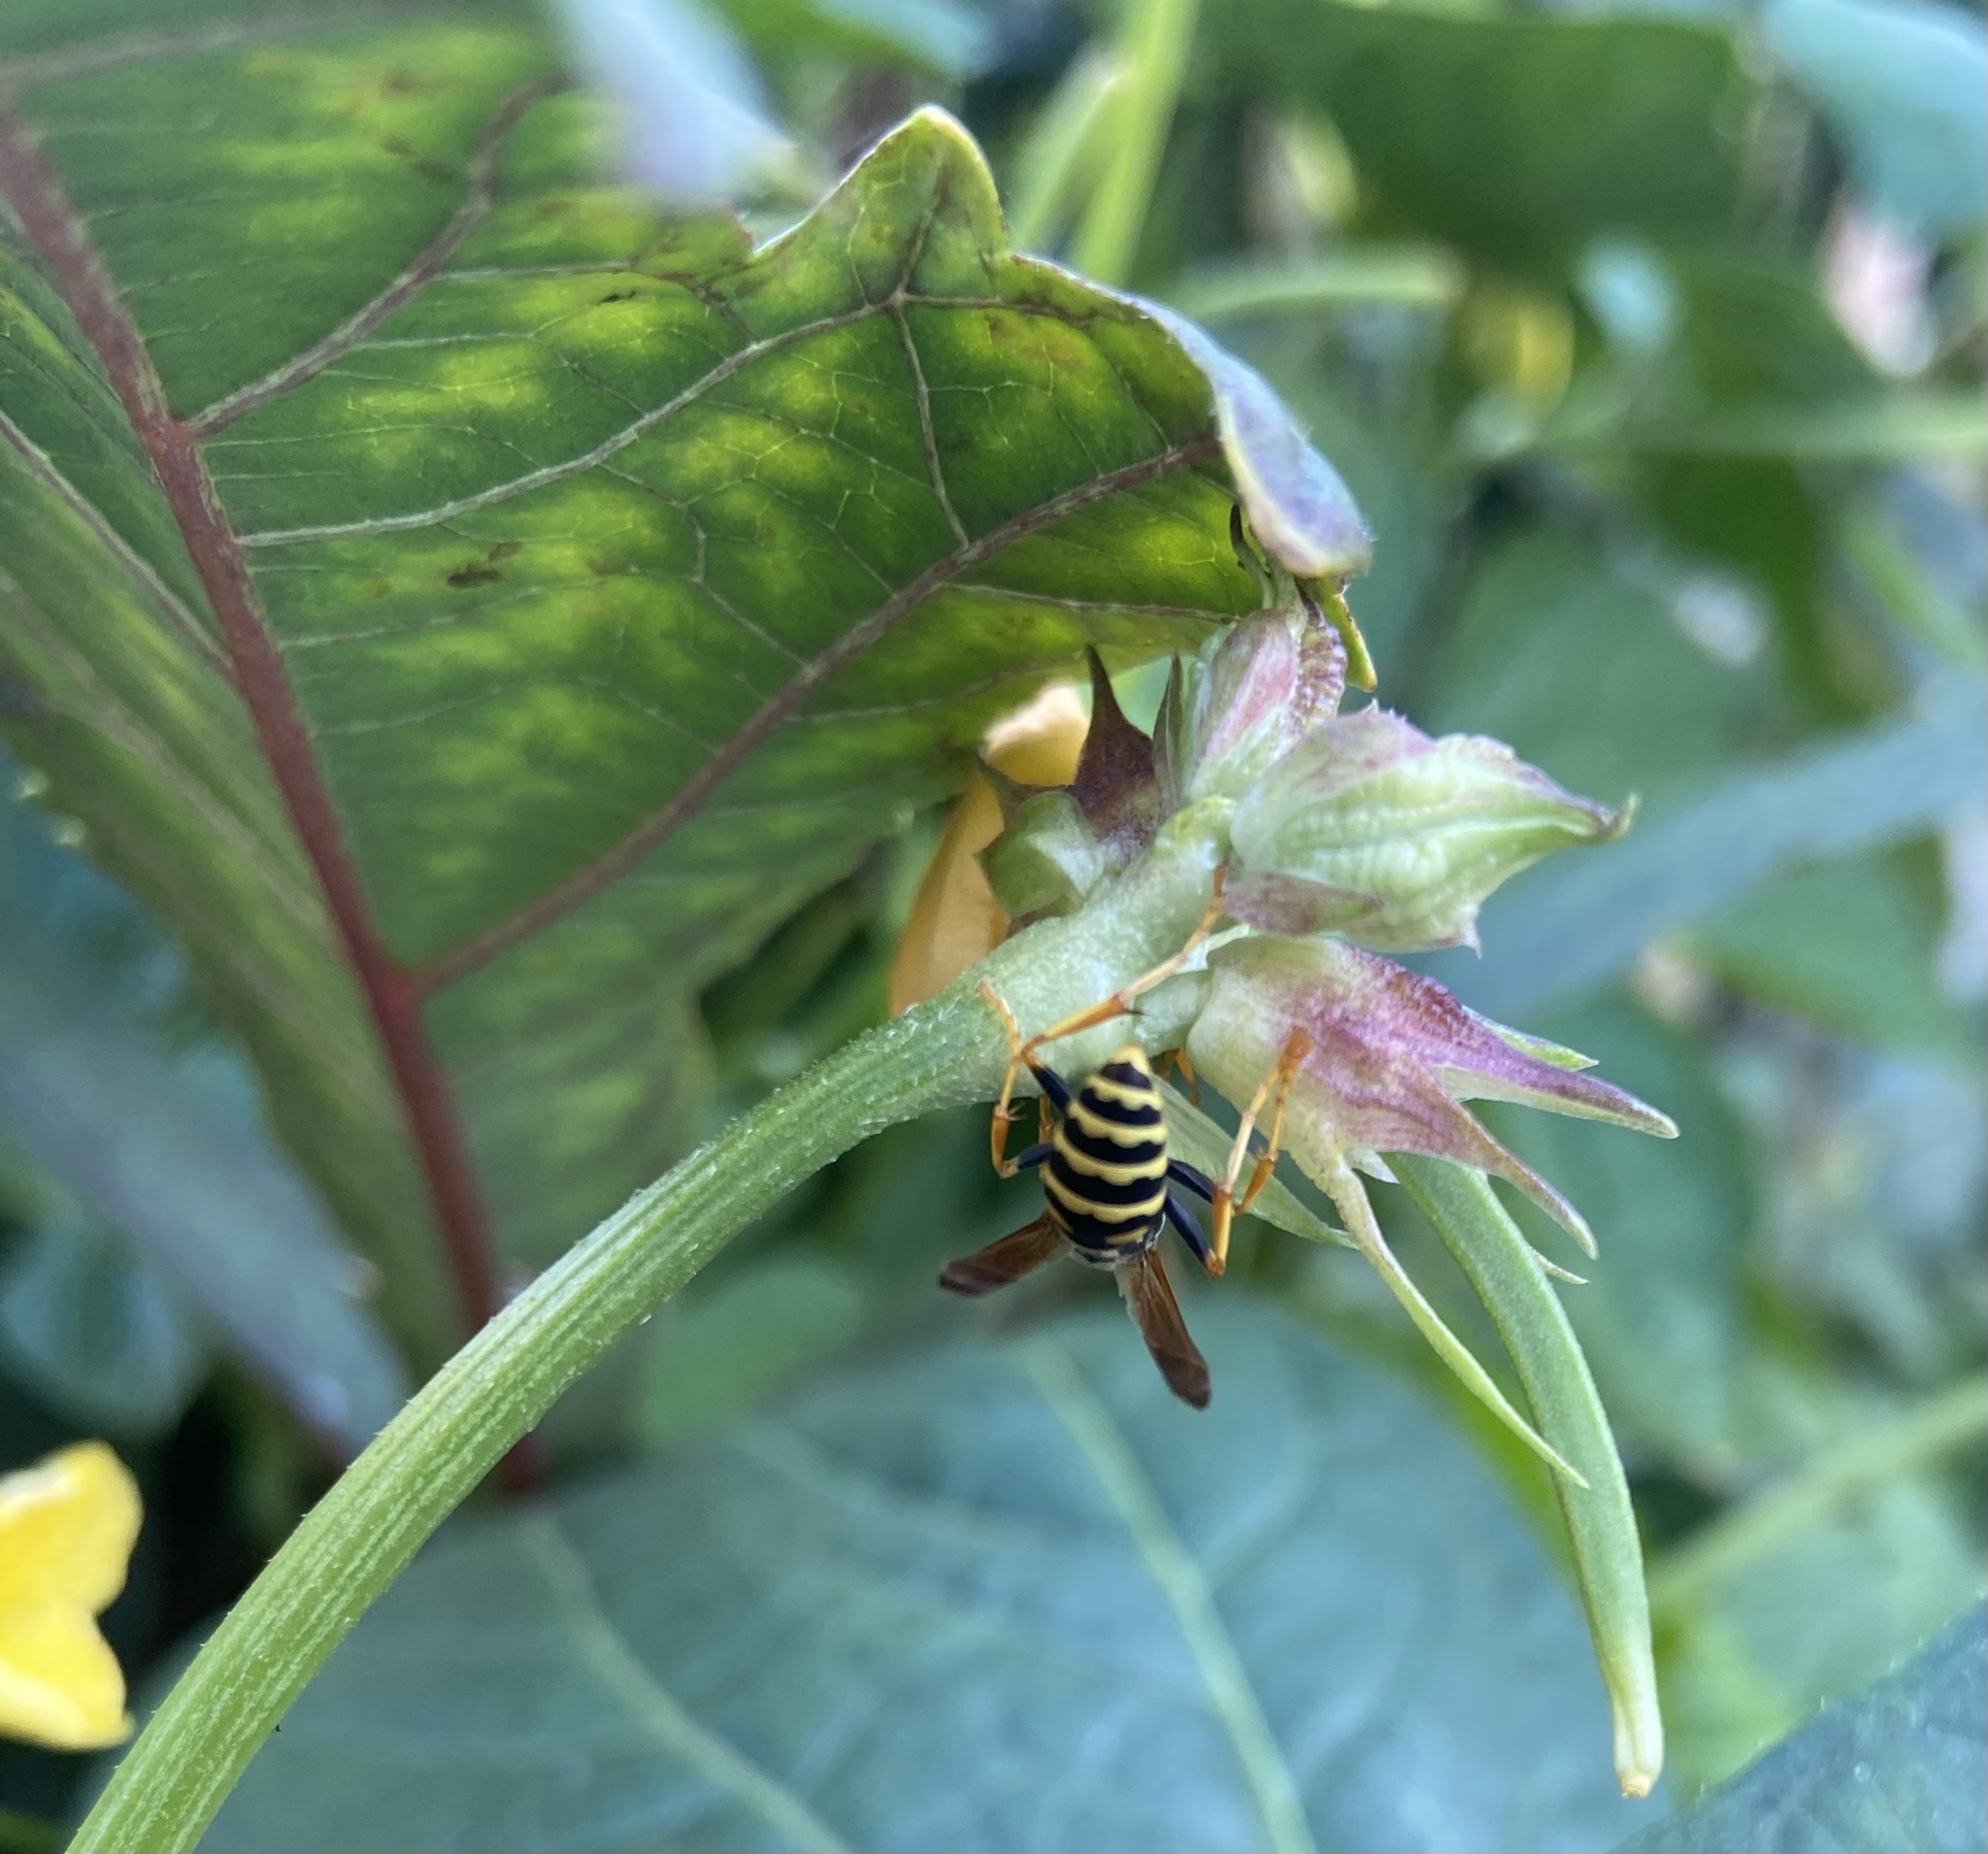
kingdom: Animalia
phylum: Arthropoda
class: Insecta
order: Hymenoptera
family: Eumenidae
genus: Polistes
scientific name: Polistes dominula
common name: Paper wasp
